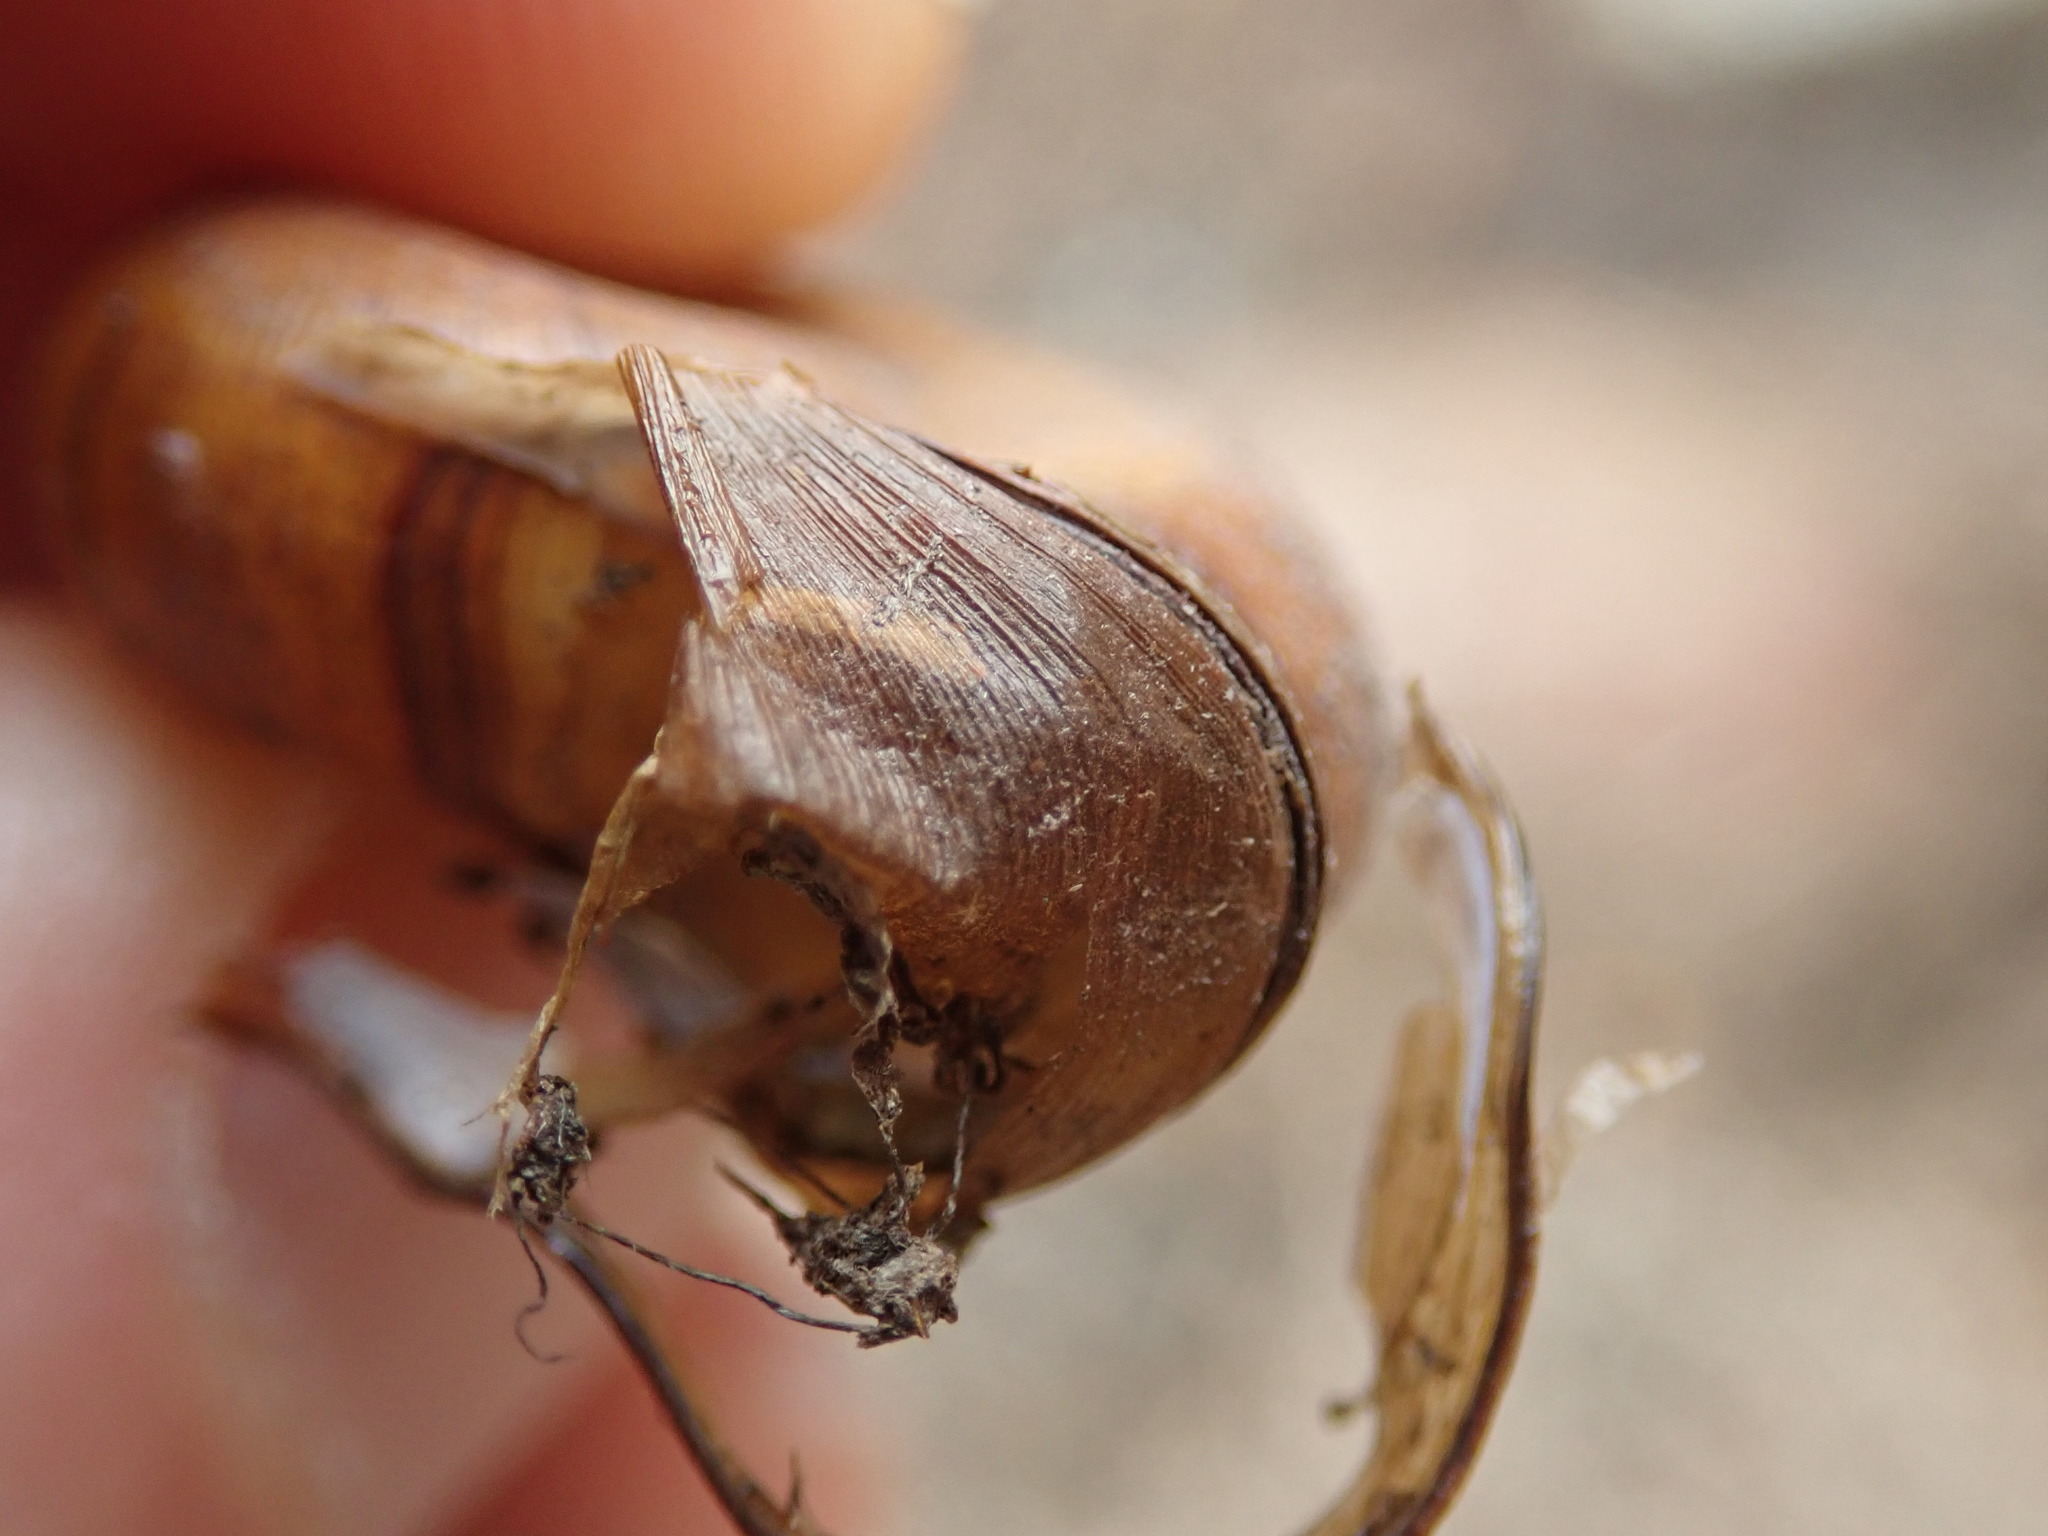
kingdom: Animalia
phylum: Mollusca
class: Gastropoda
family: Planorbidae
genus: Planorbella
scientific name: Planorbella trivolvis
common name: Marsh rams-horn
